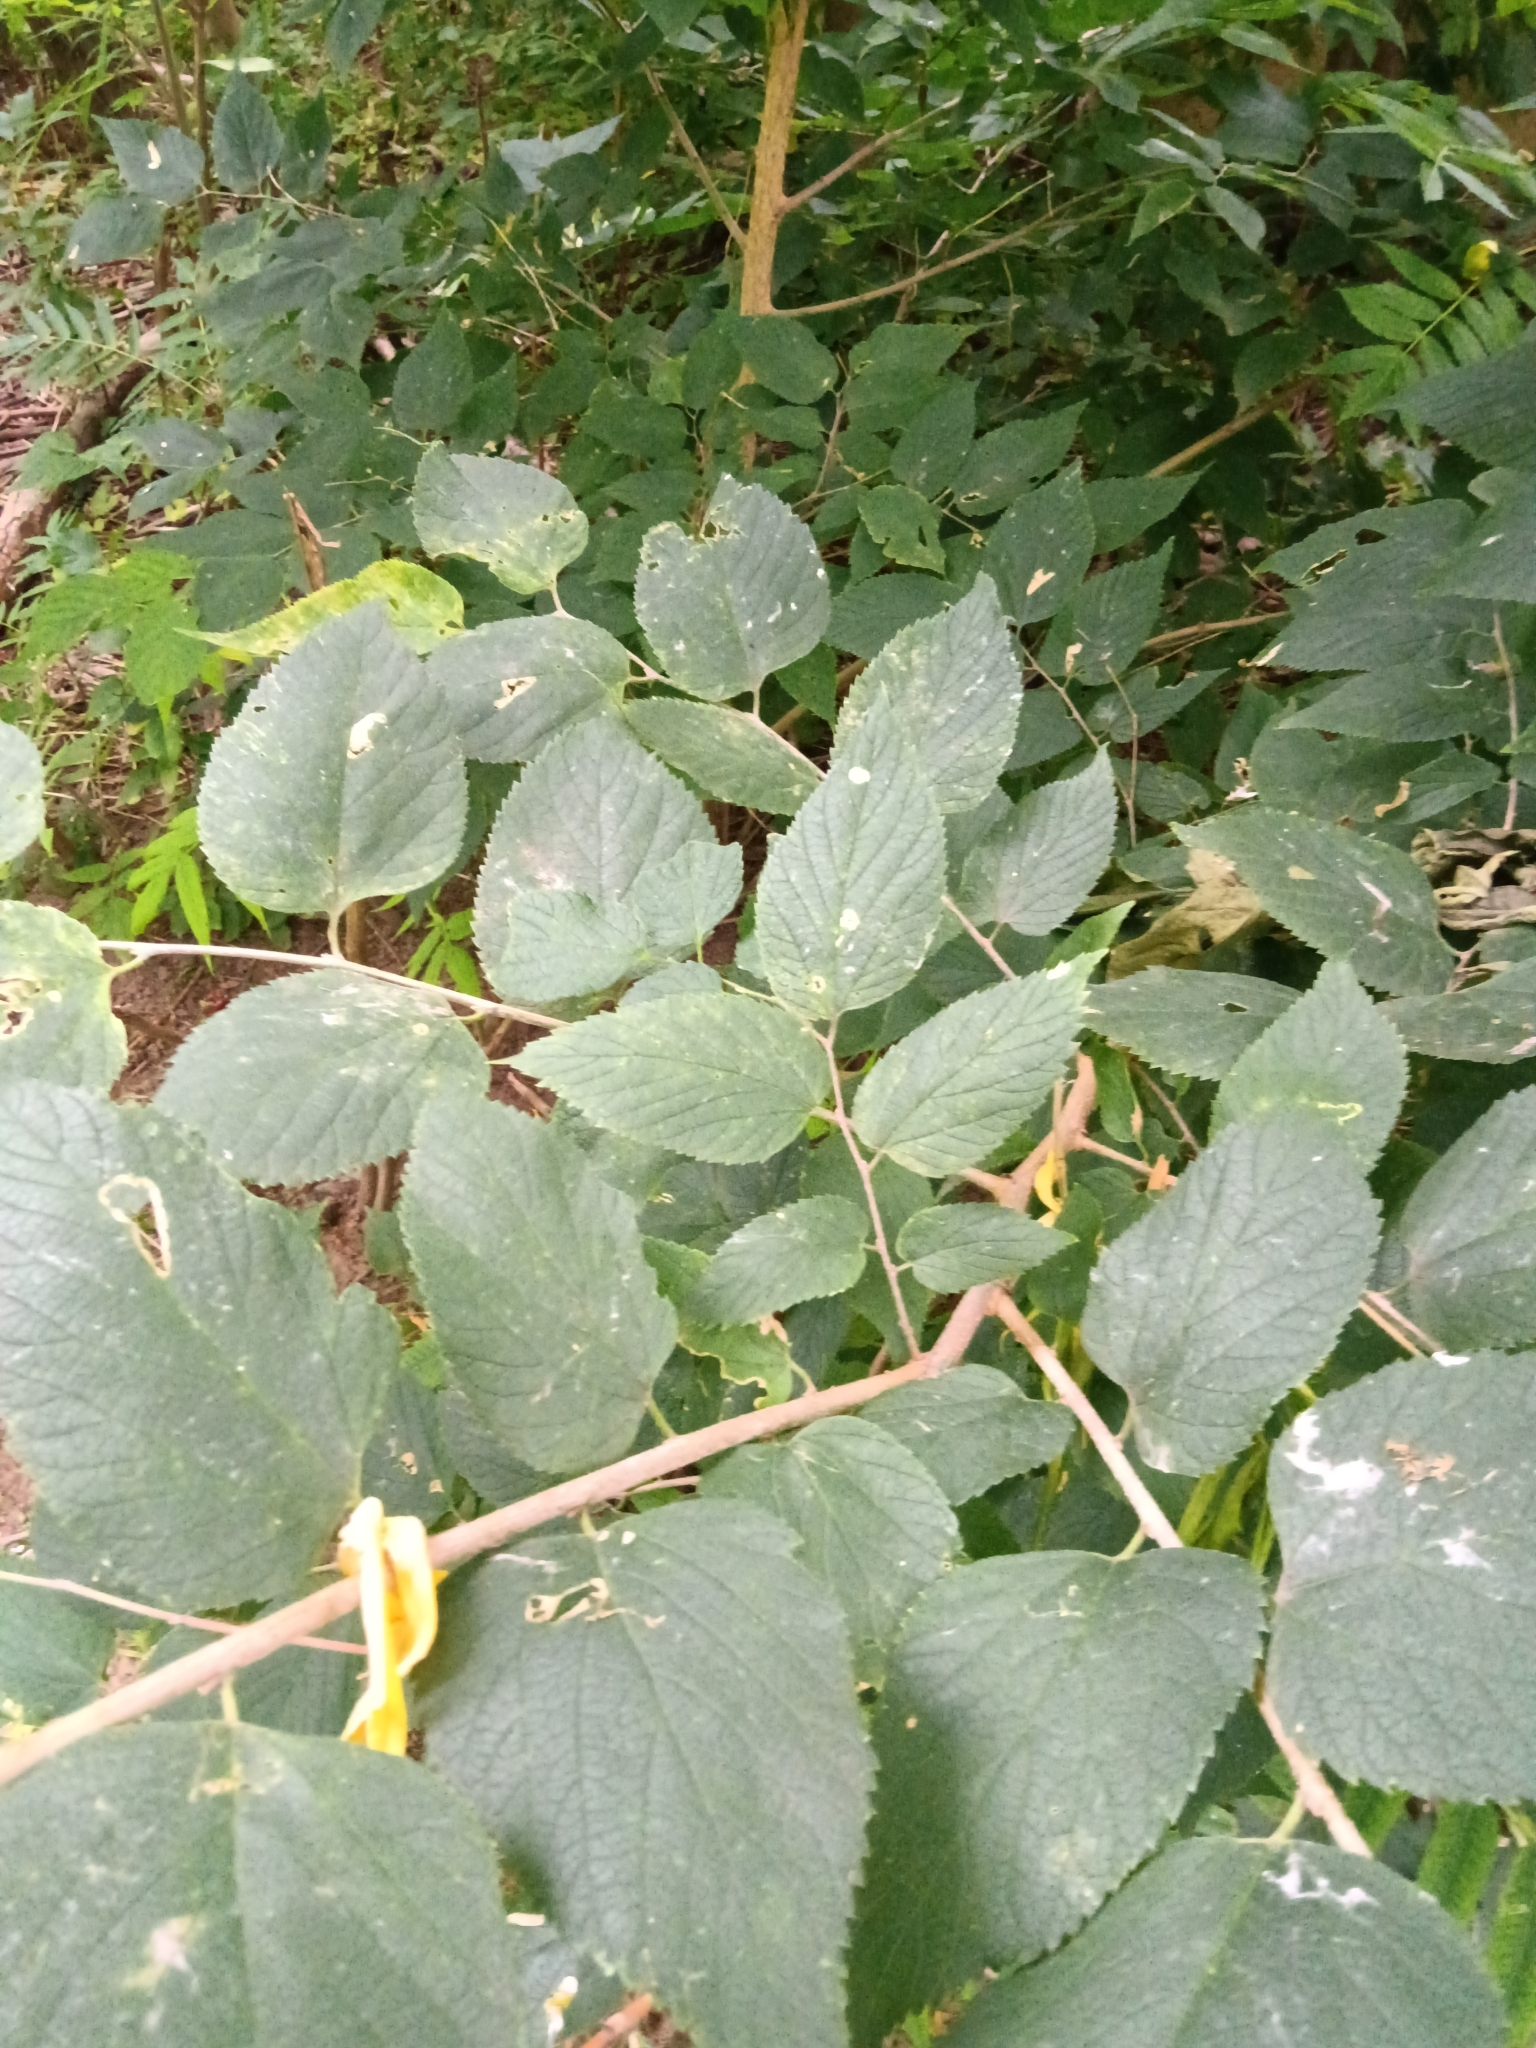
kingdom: Plantae
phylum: Tracheophyta
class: Magnoliopsida
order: Rosales
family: Cannabaceae
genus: Celtis
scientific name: Celtis occidentalis
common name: Common hackberry
